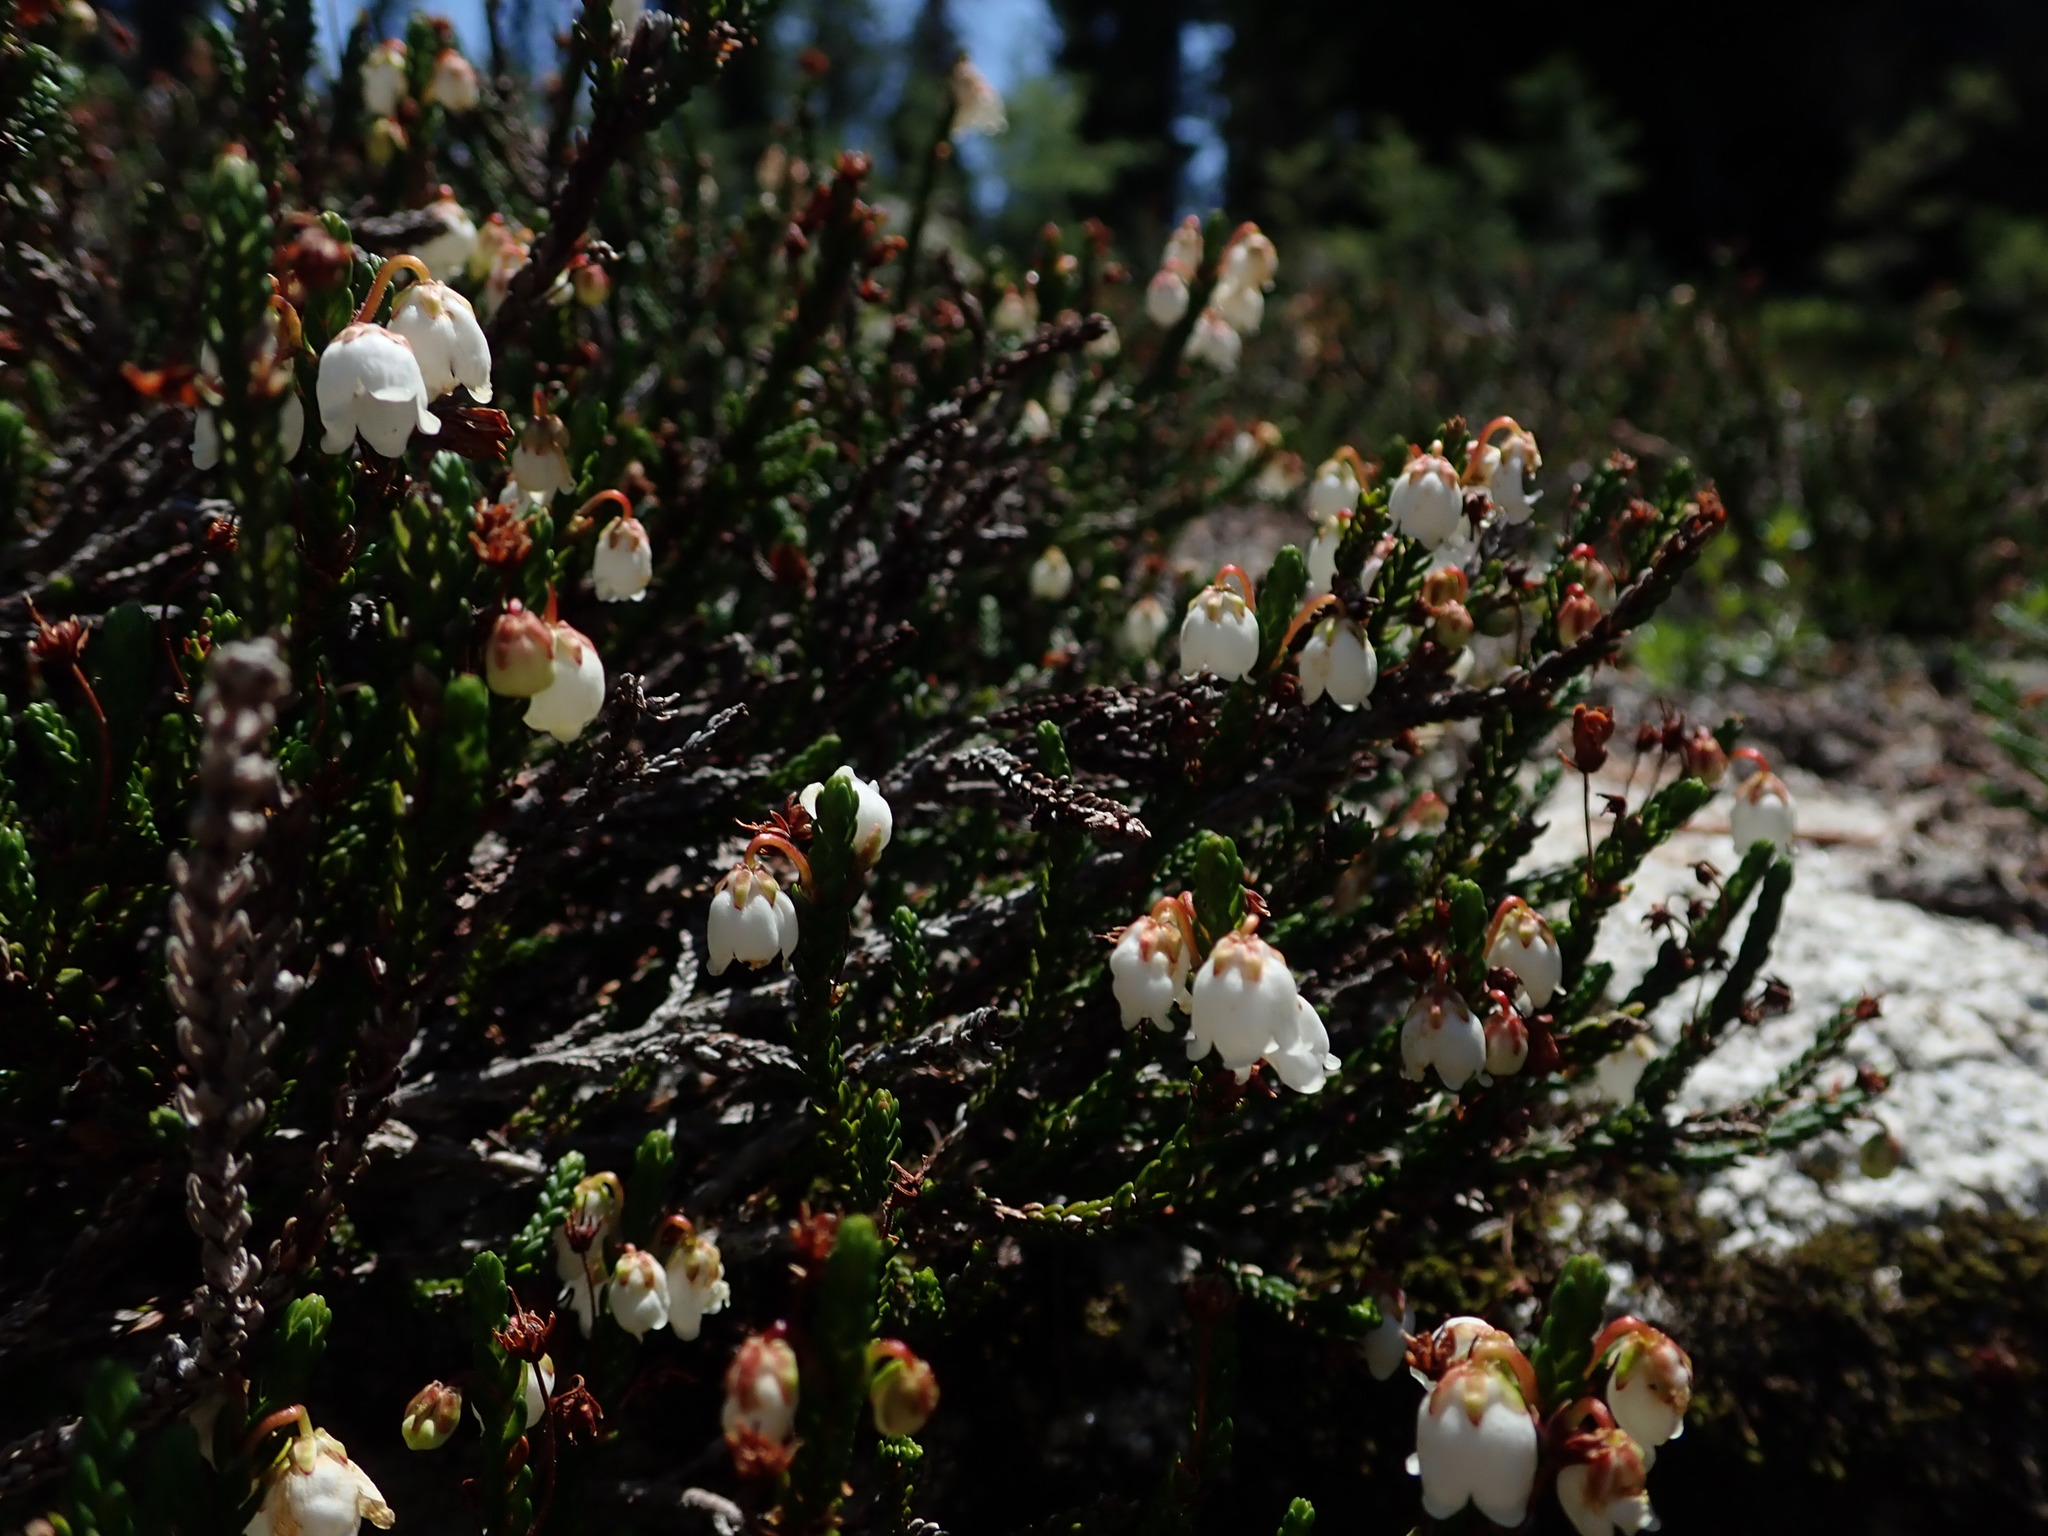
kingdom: Plantae
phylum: Tracheophyta
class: Magnoliopsida
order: Ericales
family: Ericaceae
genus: Cassiope
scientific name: Cassiope mertensiana
